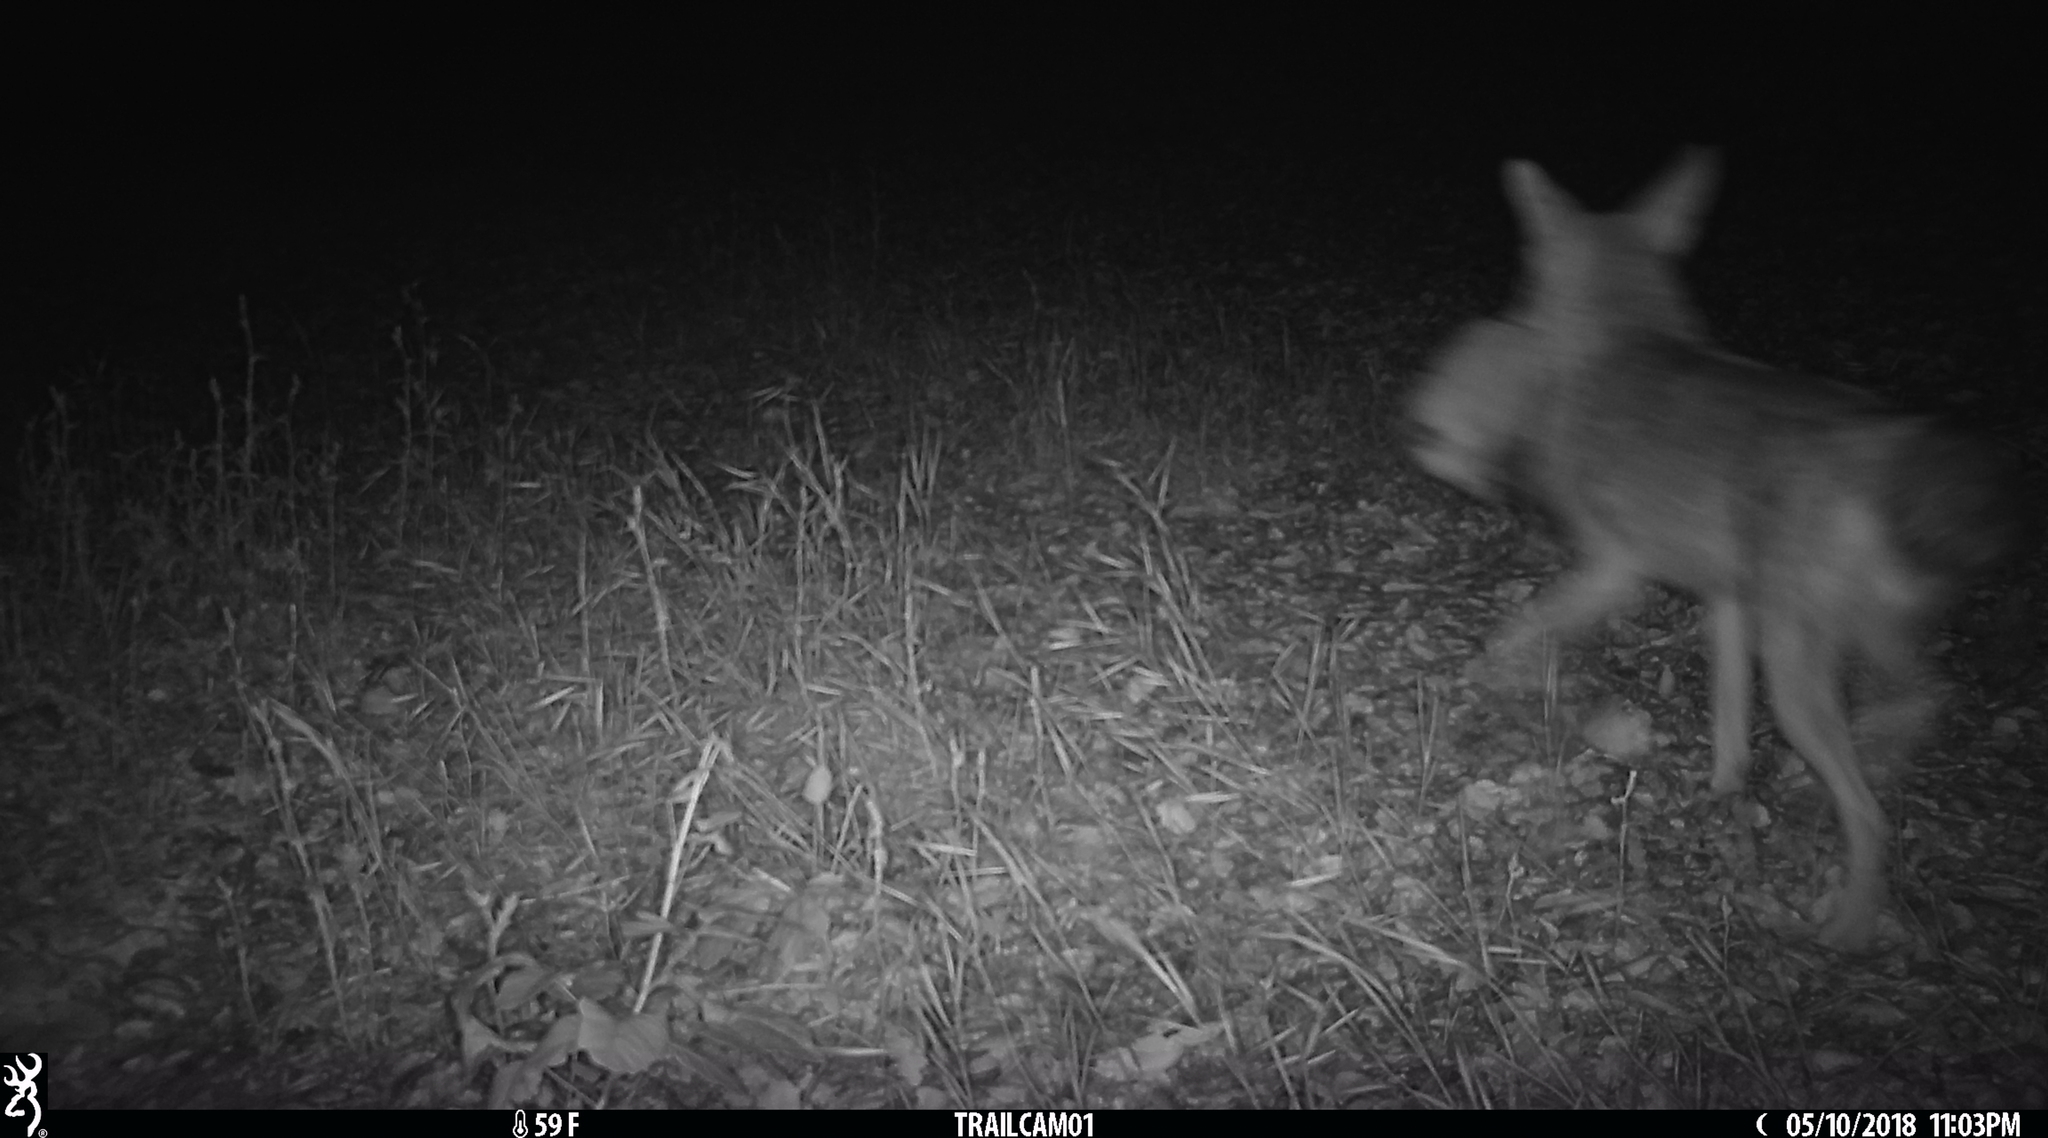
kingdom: Animalia
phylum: Chordata
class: Mammalia
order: Carnivora
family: Canidae
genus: Canis
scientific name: Canis latrans
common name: Coyote
